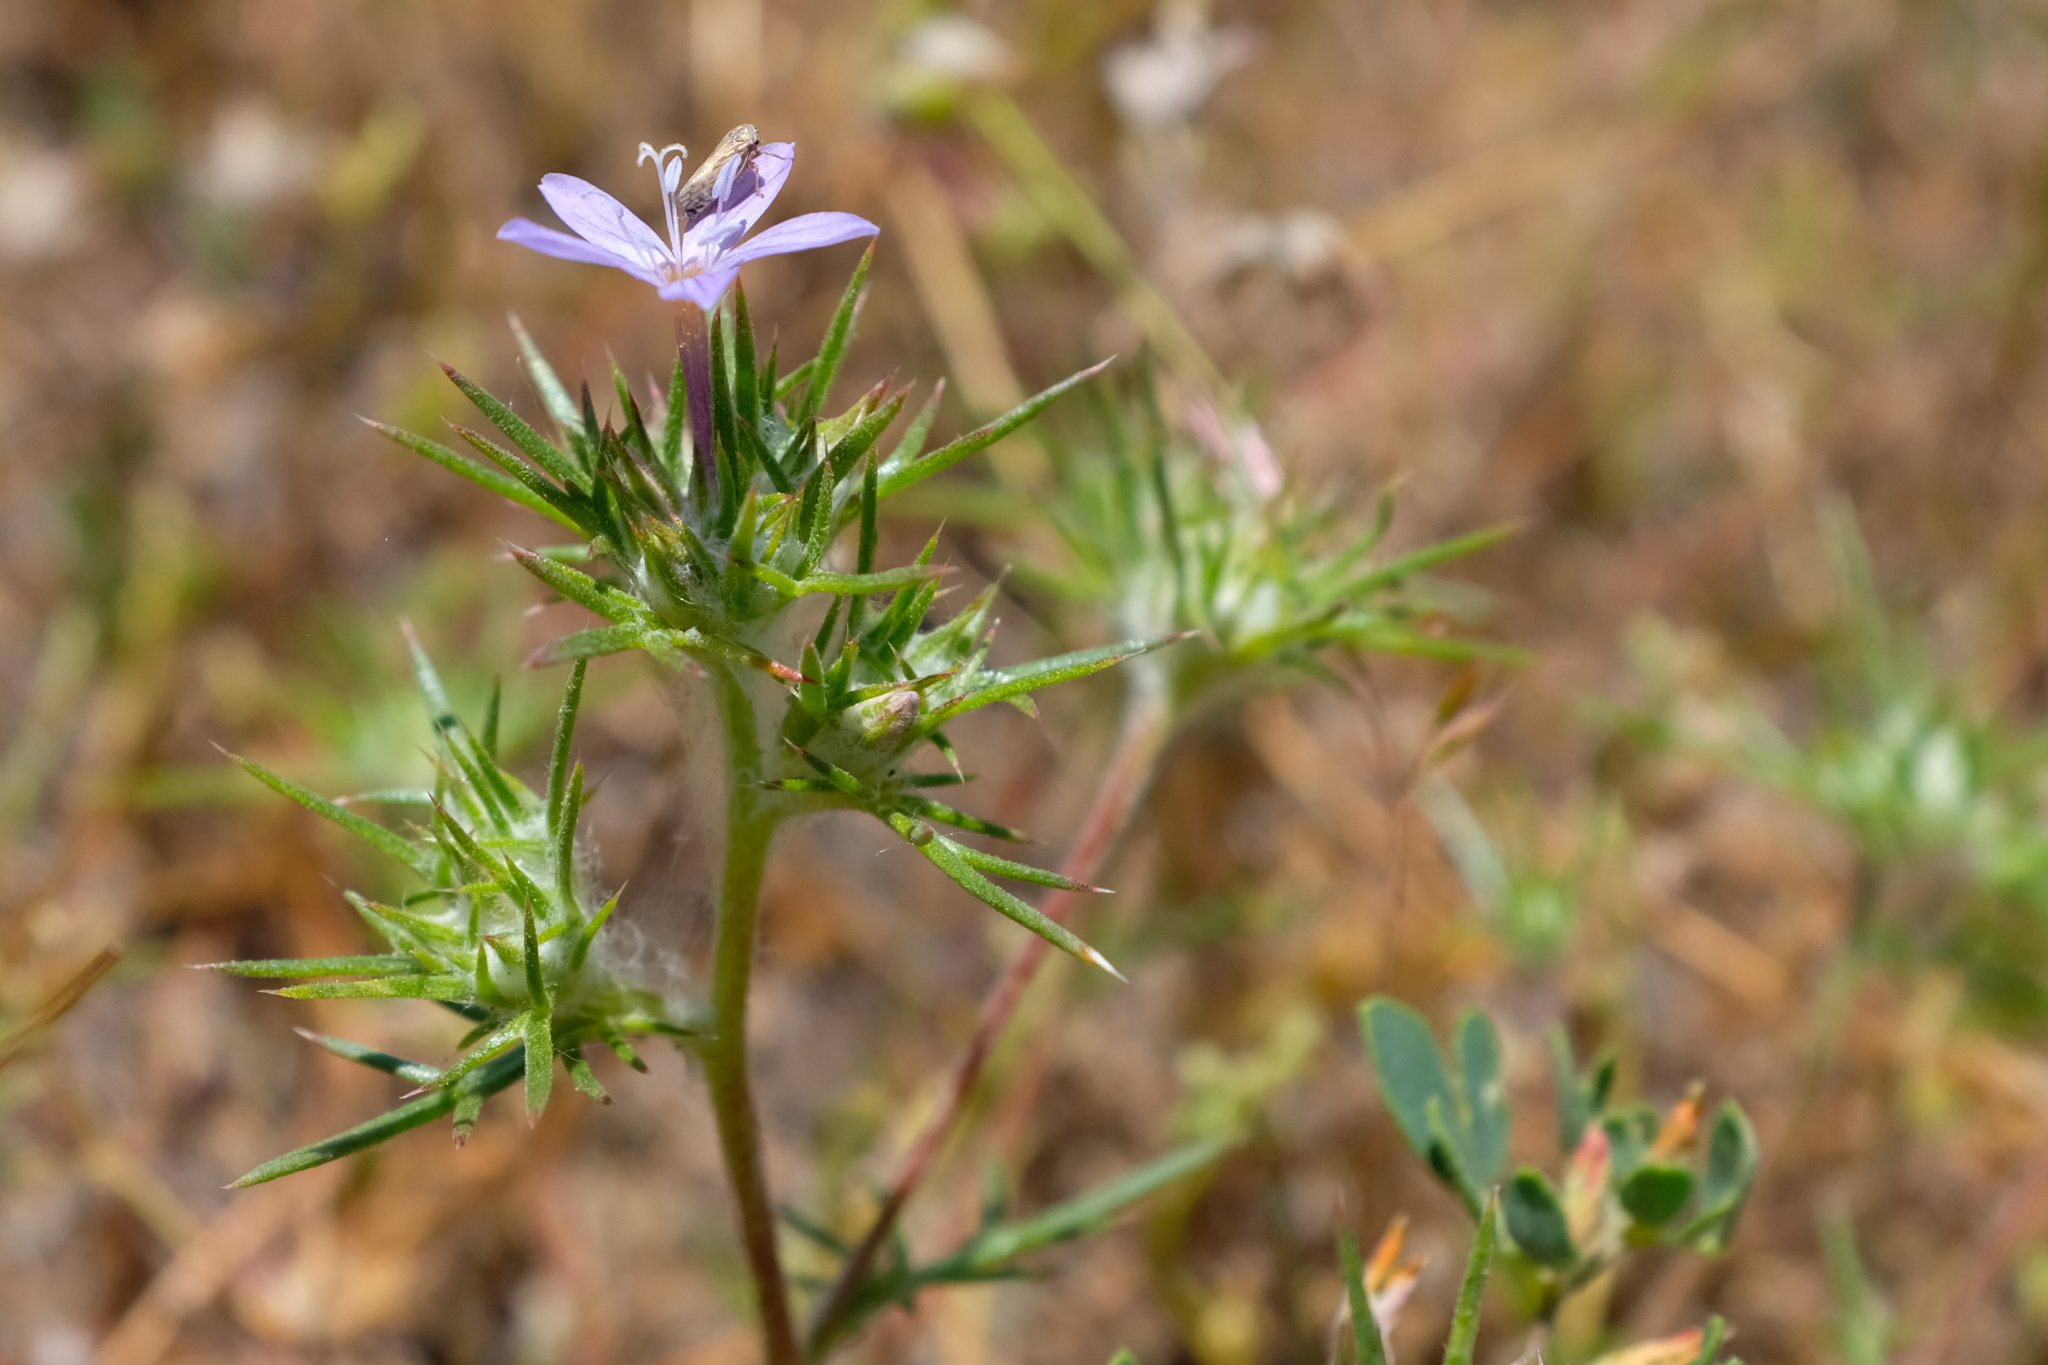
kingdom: Plantae
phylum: Tracheophyta
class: Magnoliopsida
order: Ericales
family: Polemoniaceae
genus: Eriastrum
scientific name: Eriastrum pluriflorum
